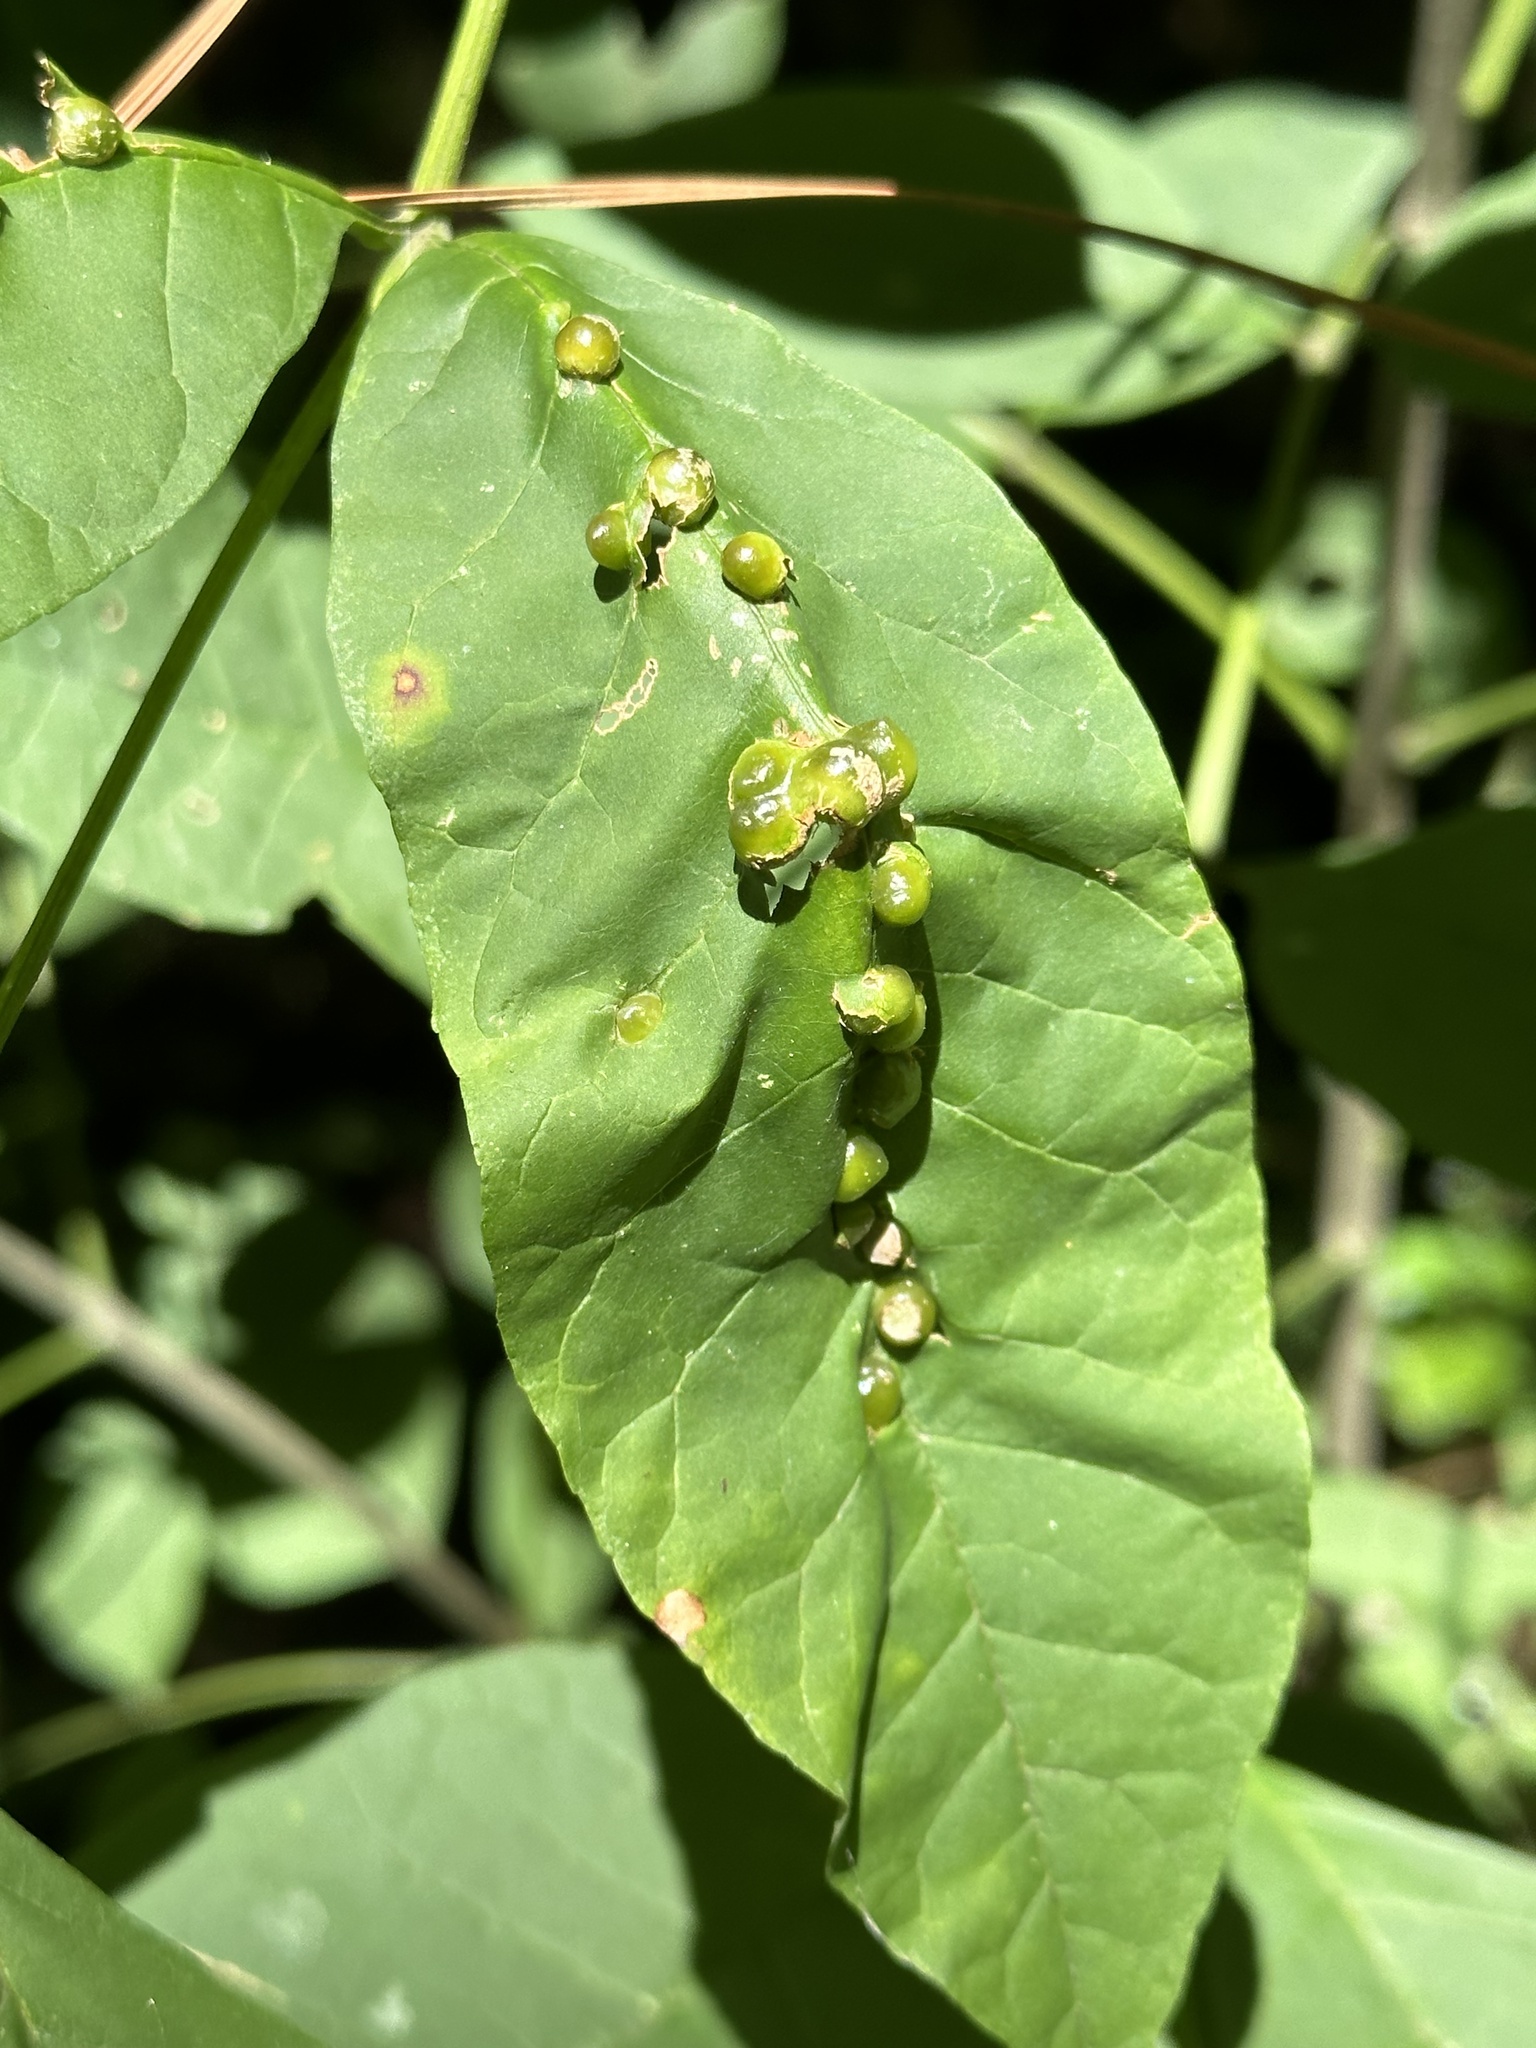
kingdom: Animalia
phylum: Arthropoda
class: Insecta
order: Diptera
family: Cecidomyiidae
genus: Dasineura
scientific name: Dasineura pellex
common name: Ash bullet gall midge
